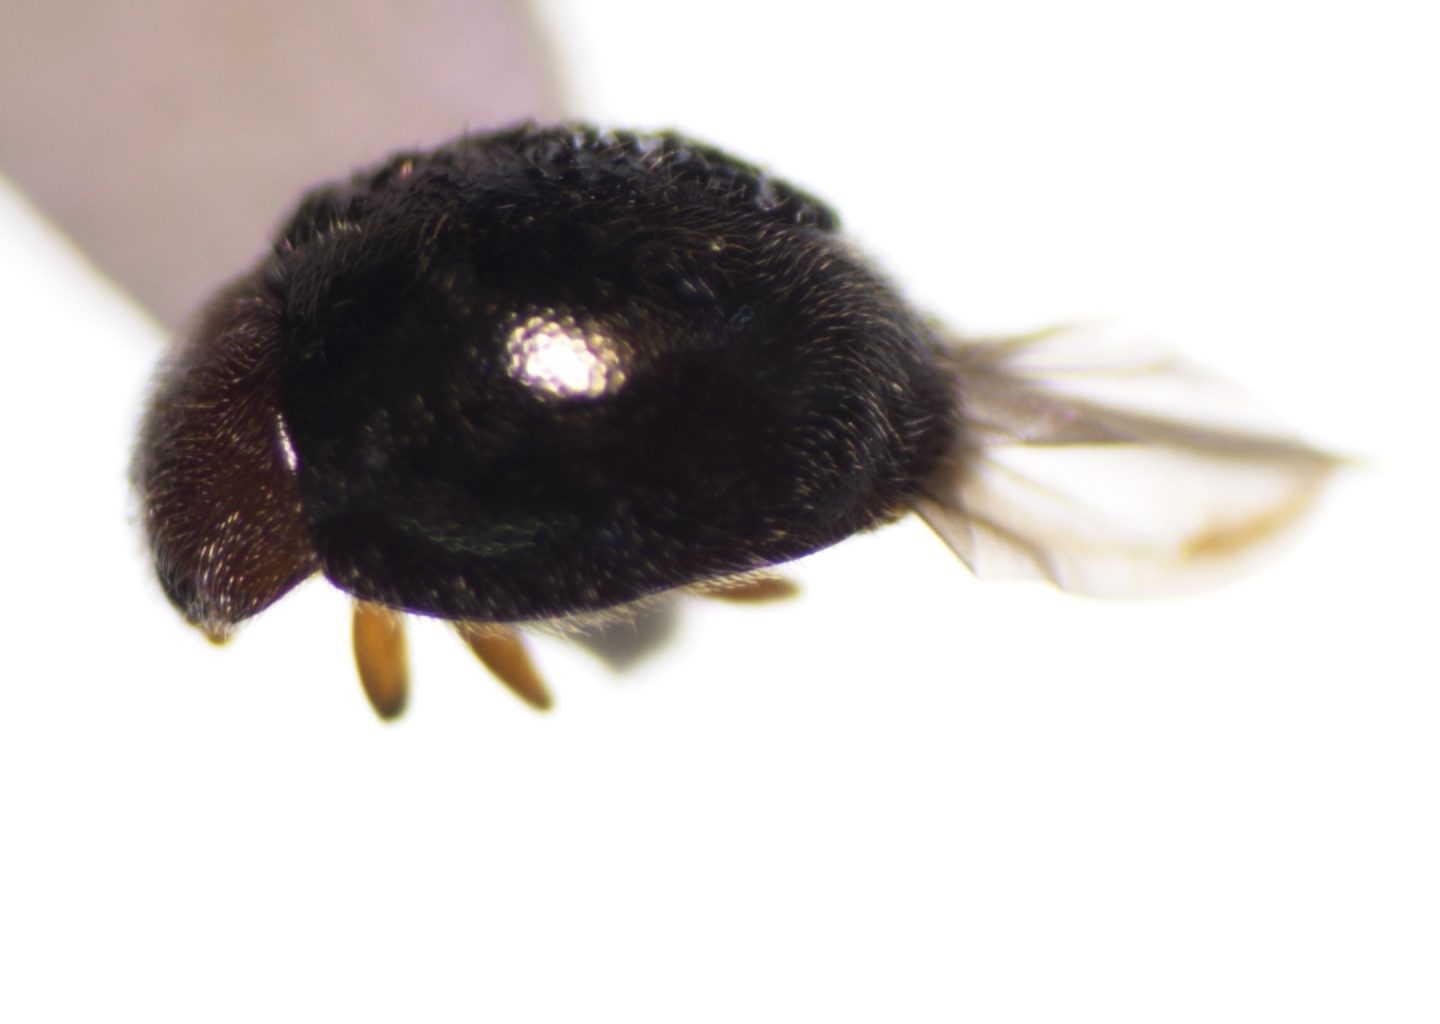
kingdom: Animalia
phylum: Arthropoda
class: Insecta
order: Coleoptera
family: Coccinellidae
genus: Rhyzobius
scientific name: Rhyzobius lophanthae
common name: Scale-eating ladybird beetle
